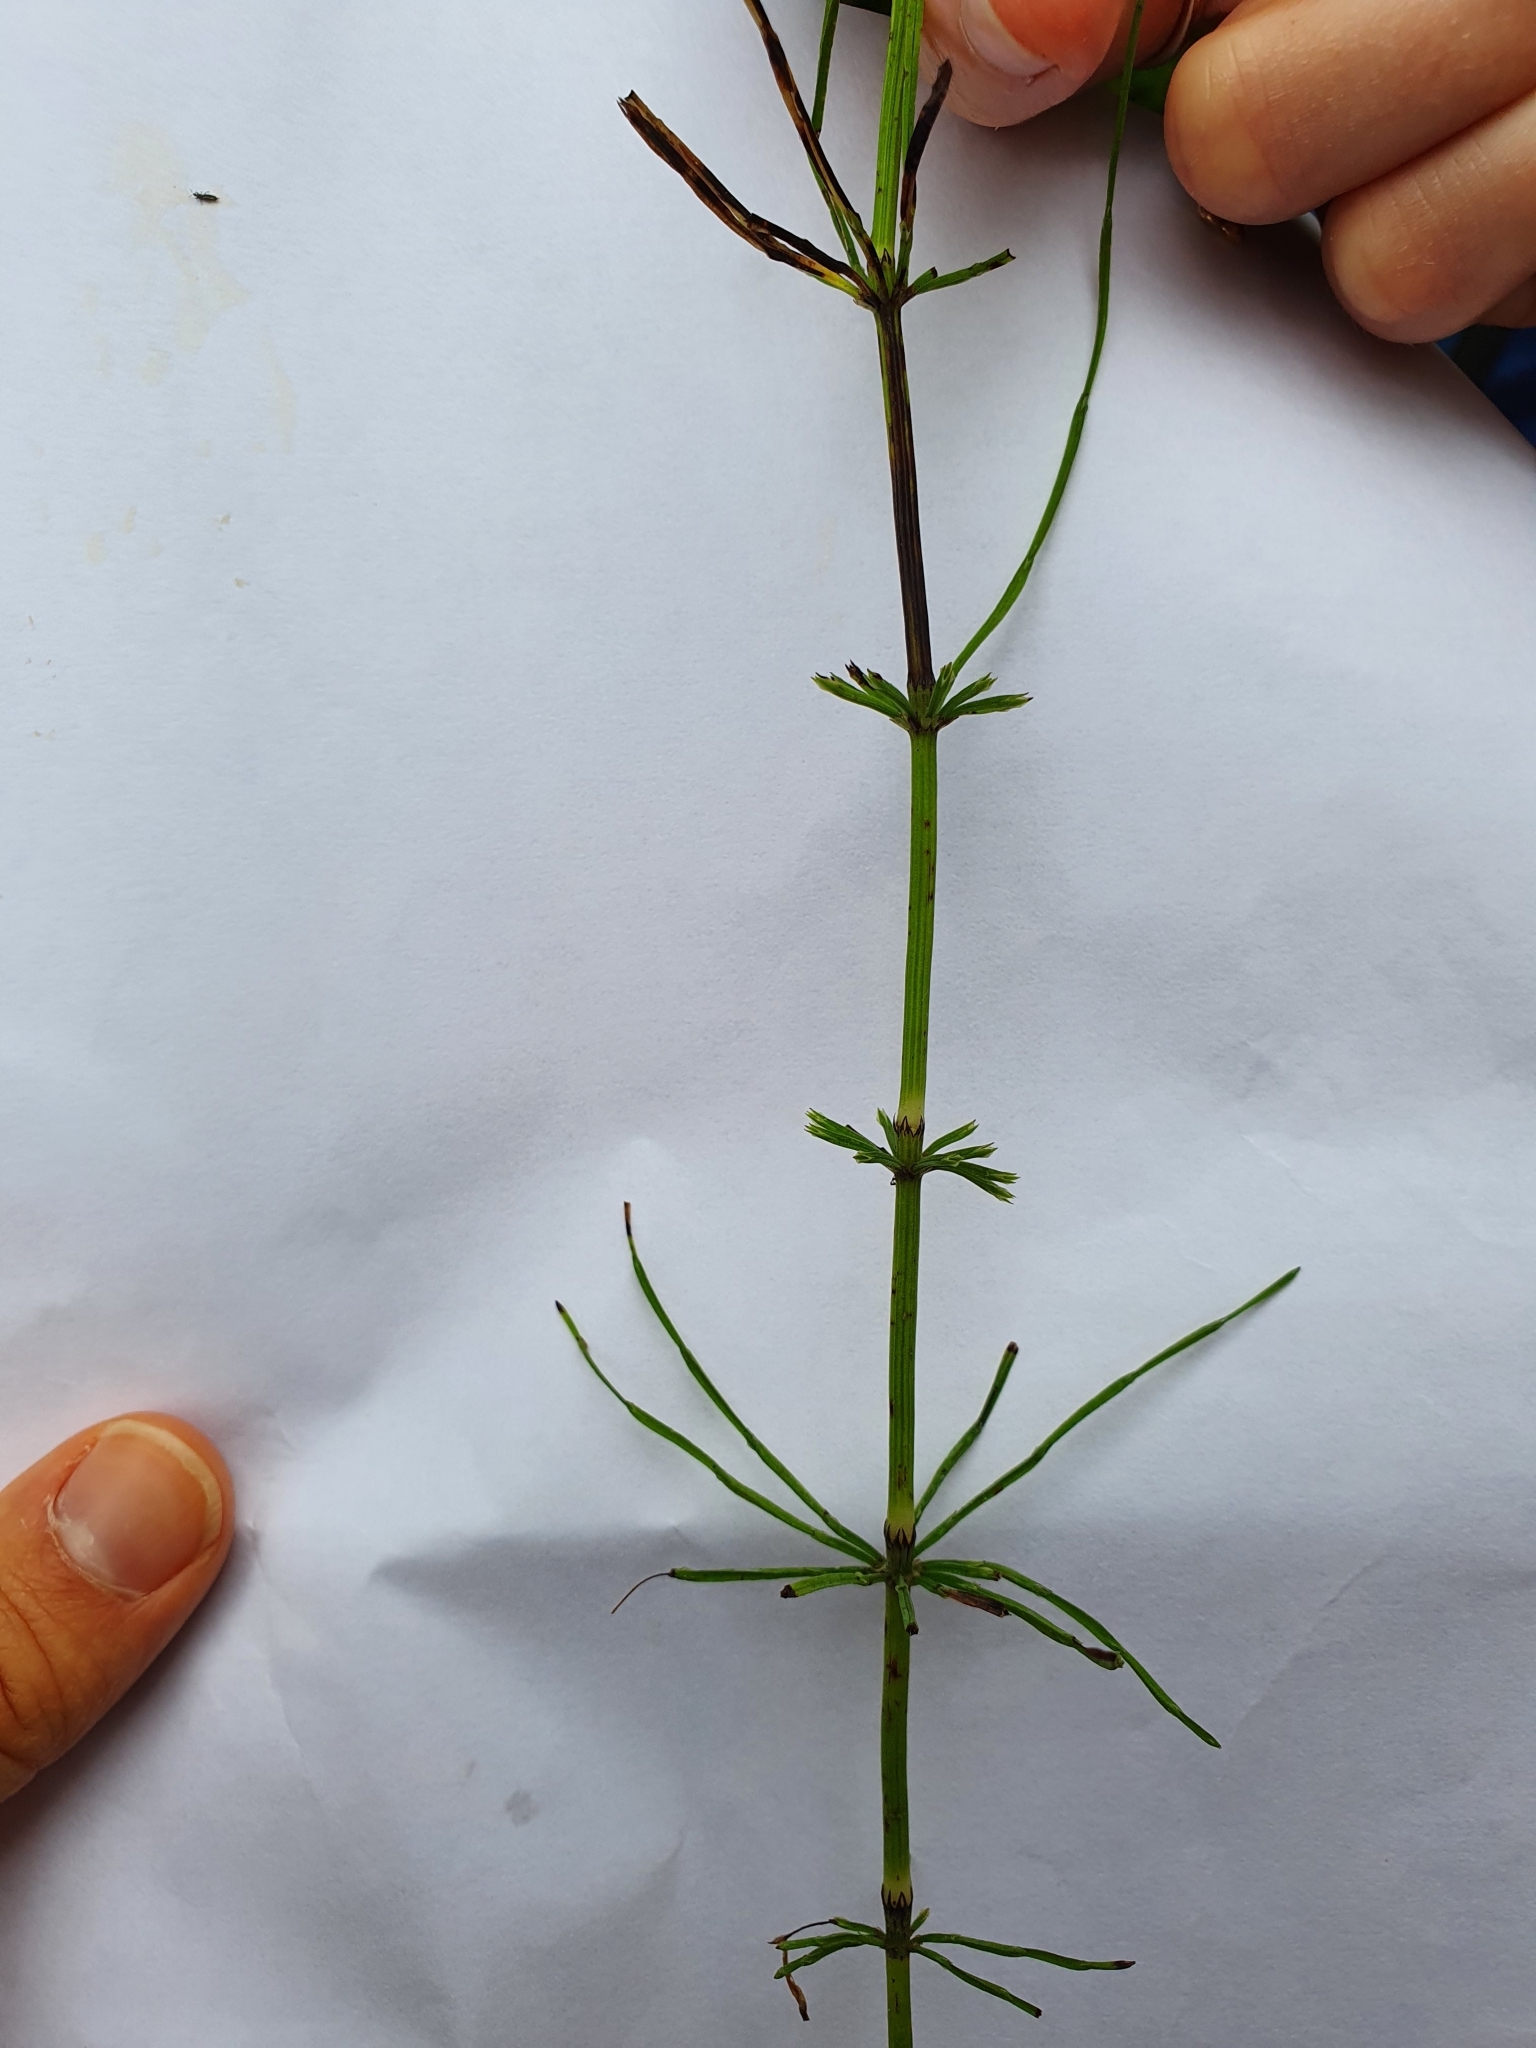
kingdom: Plantae
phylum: Tracheophyta
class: Polypodiopsida
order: Equisetales
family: Equisetaceae
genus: Equisetum
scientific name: Equisetum arvense
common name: Field horsetail
